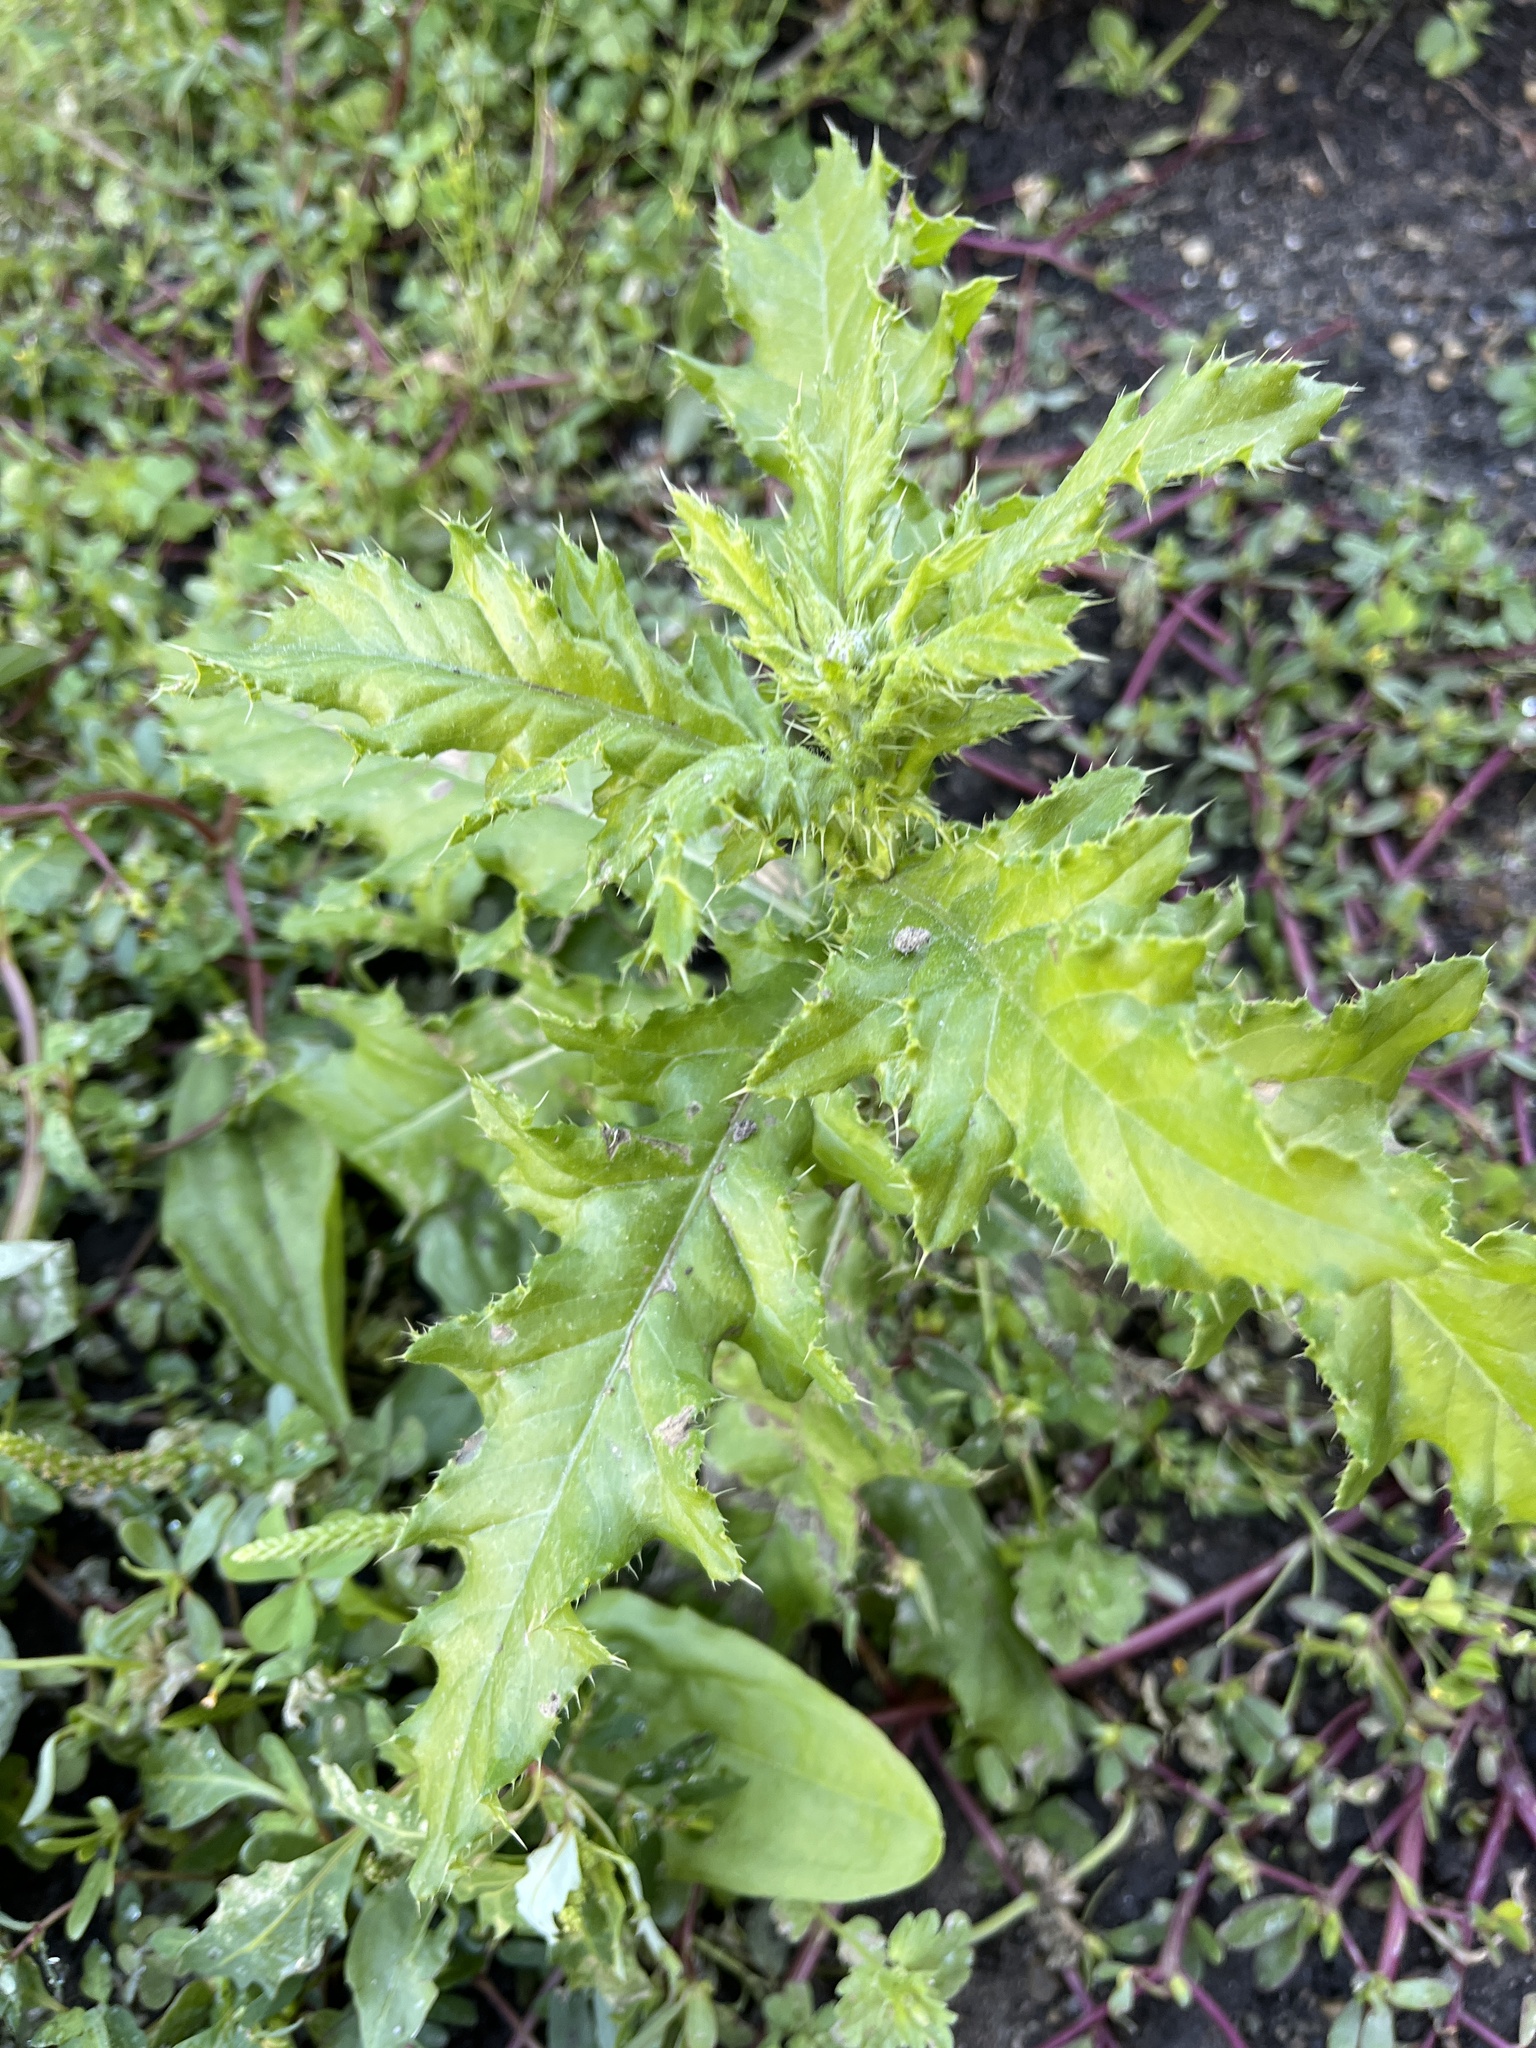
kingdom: Plantae
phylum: Tracheophyta
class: Magnoliopsida
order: Asterales
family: Asteraceae
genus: Cirsium
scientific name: Cirsium arvense
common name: Creeping thistle
